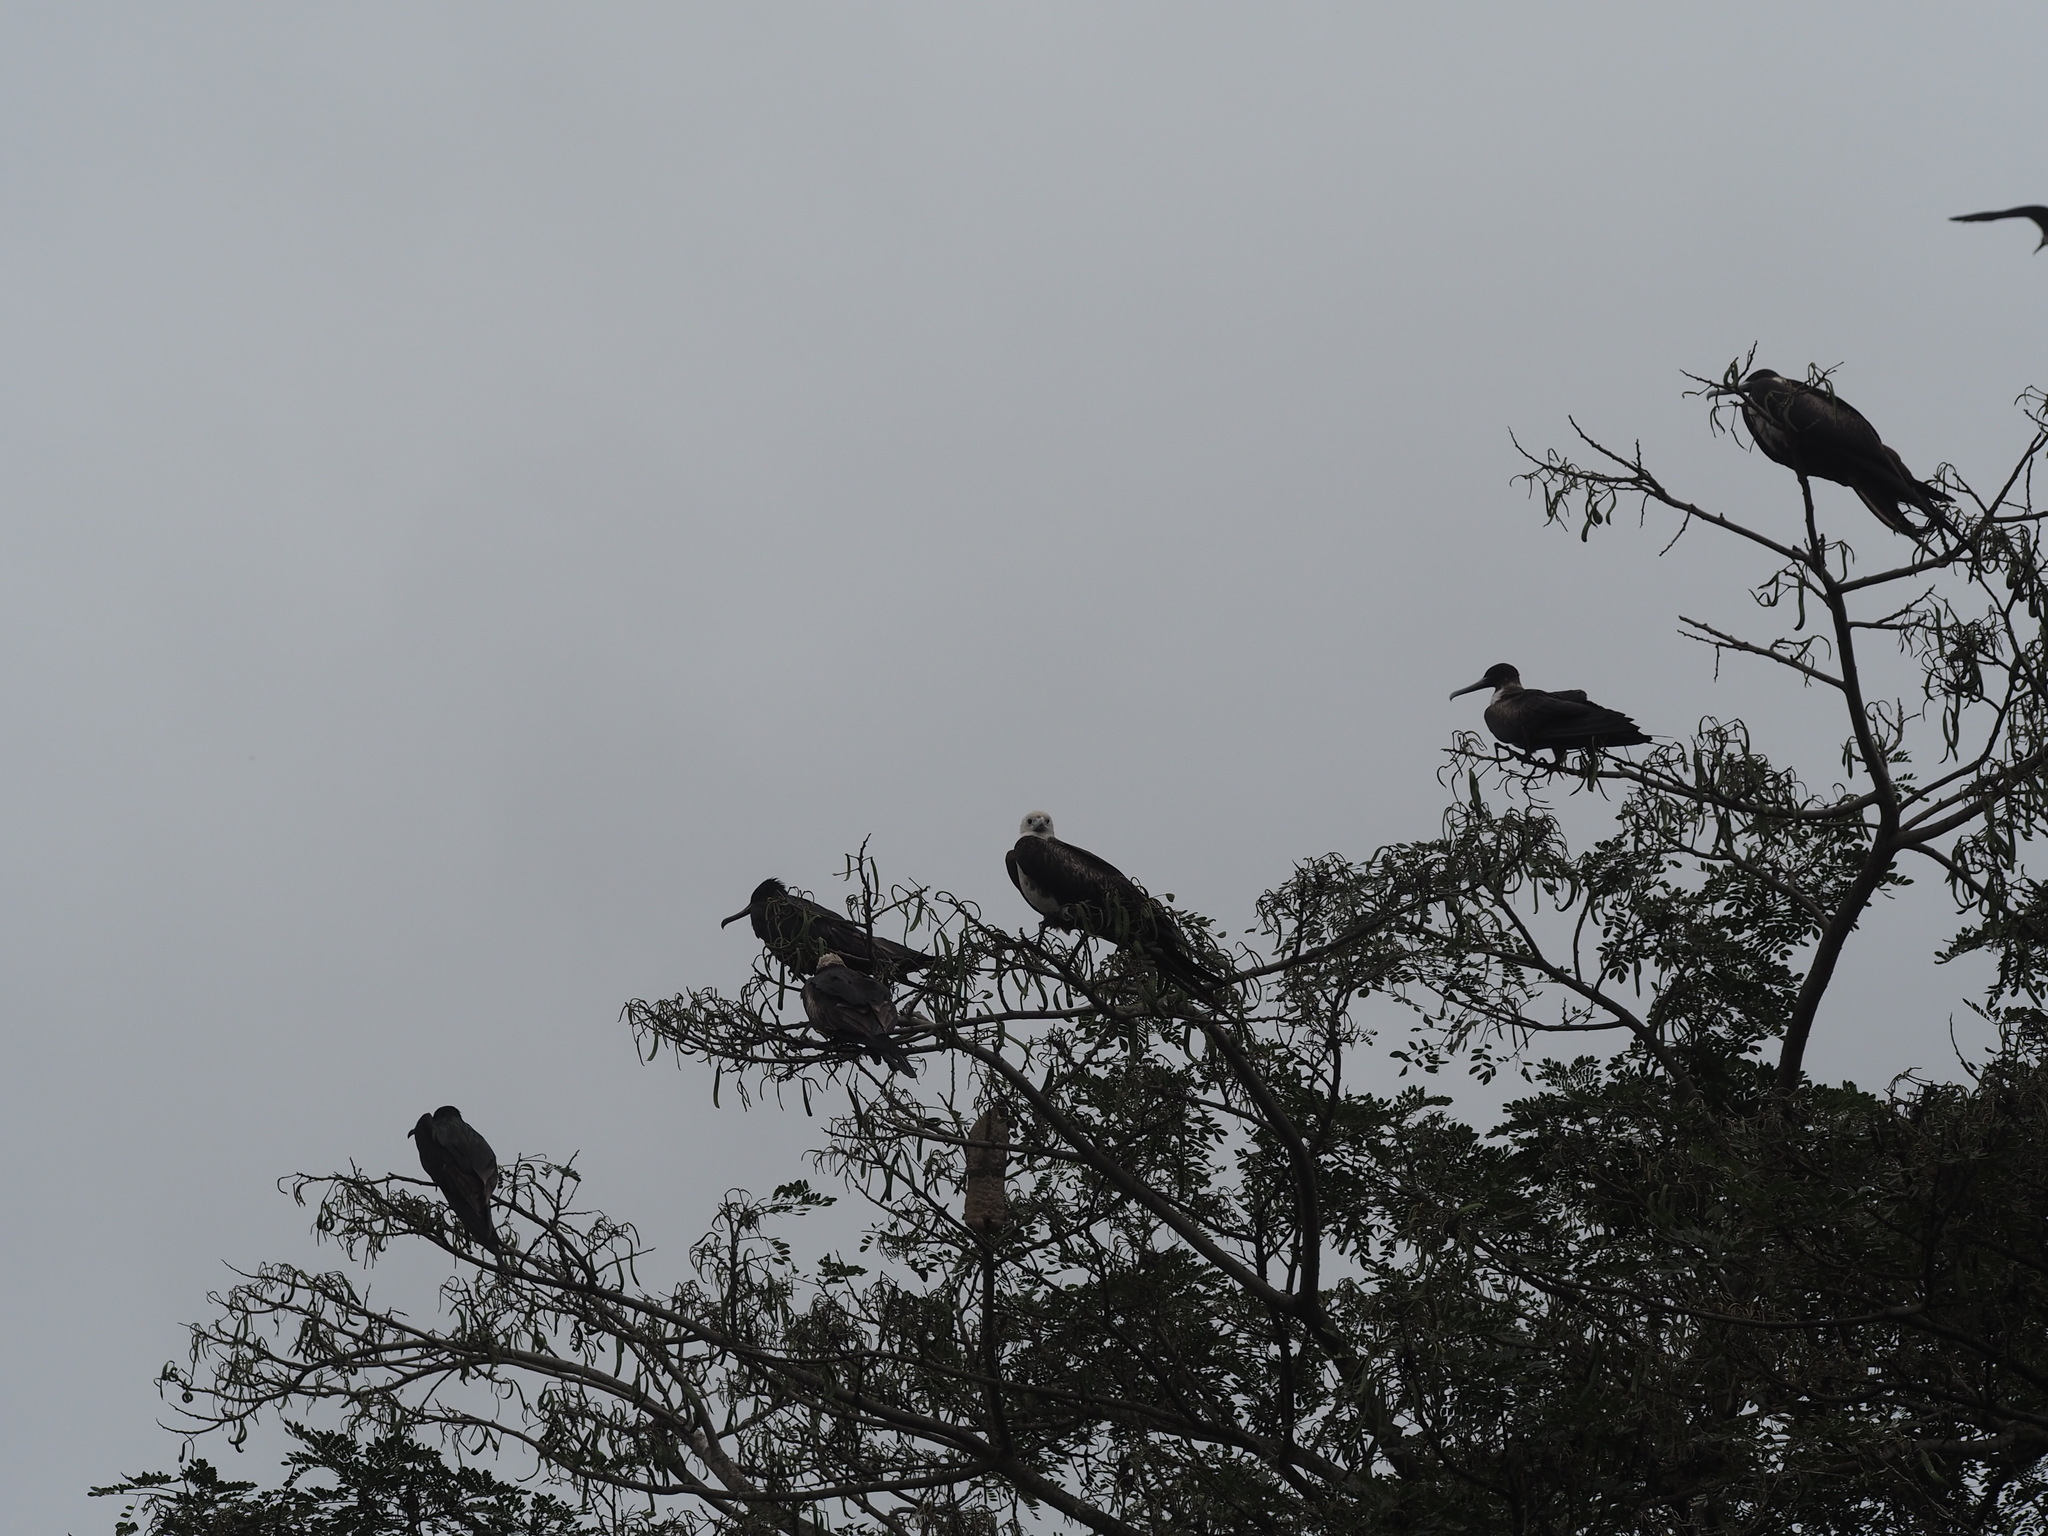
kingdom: Animalia
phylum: Chordata
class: Aves
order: Suliformes
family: Fregatidae
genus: Fregata
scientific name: Fregata magnificens
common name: Magnificent frigatebird
